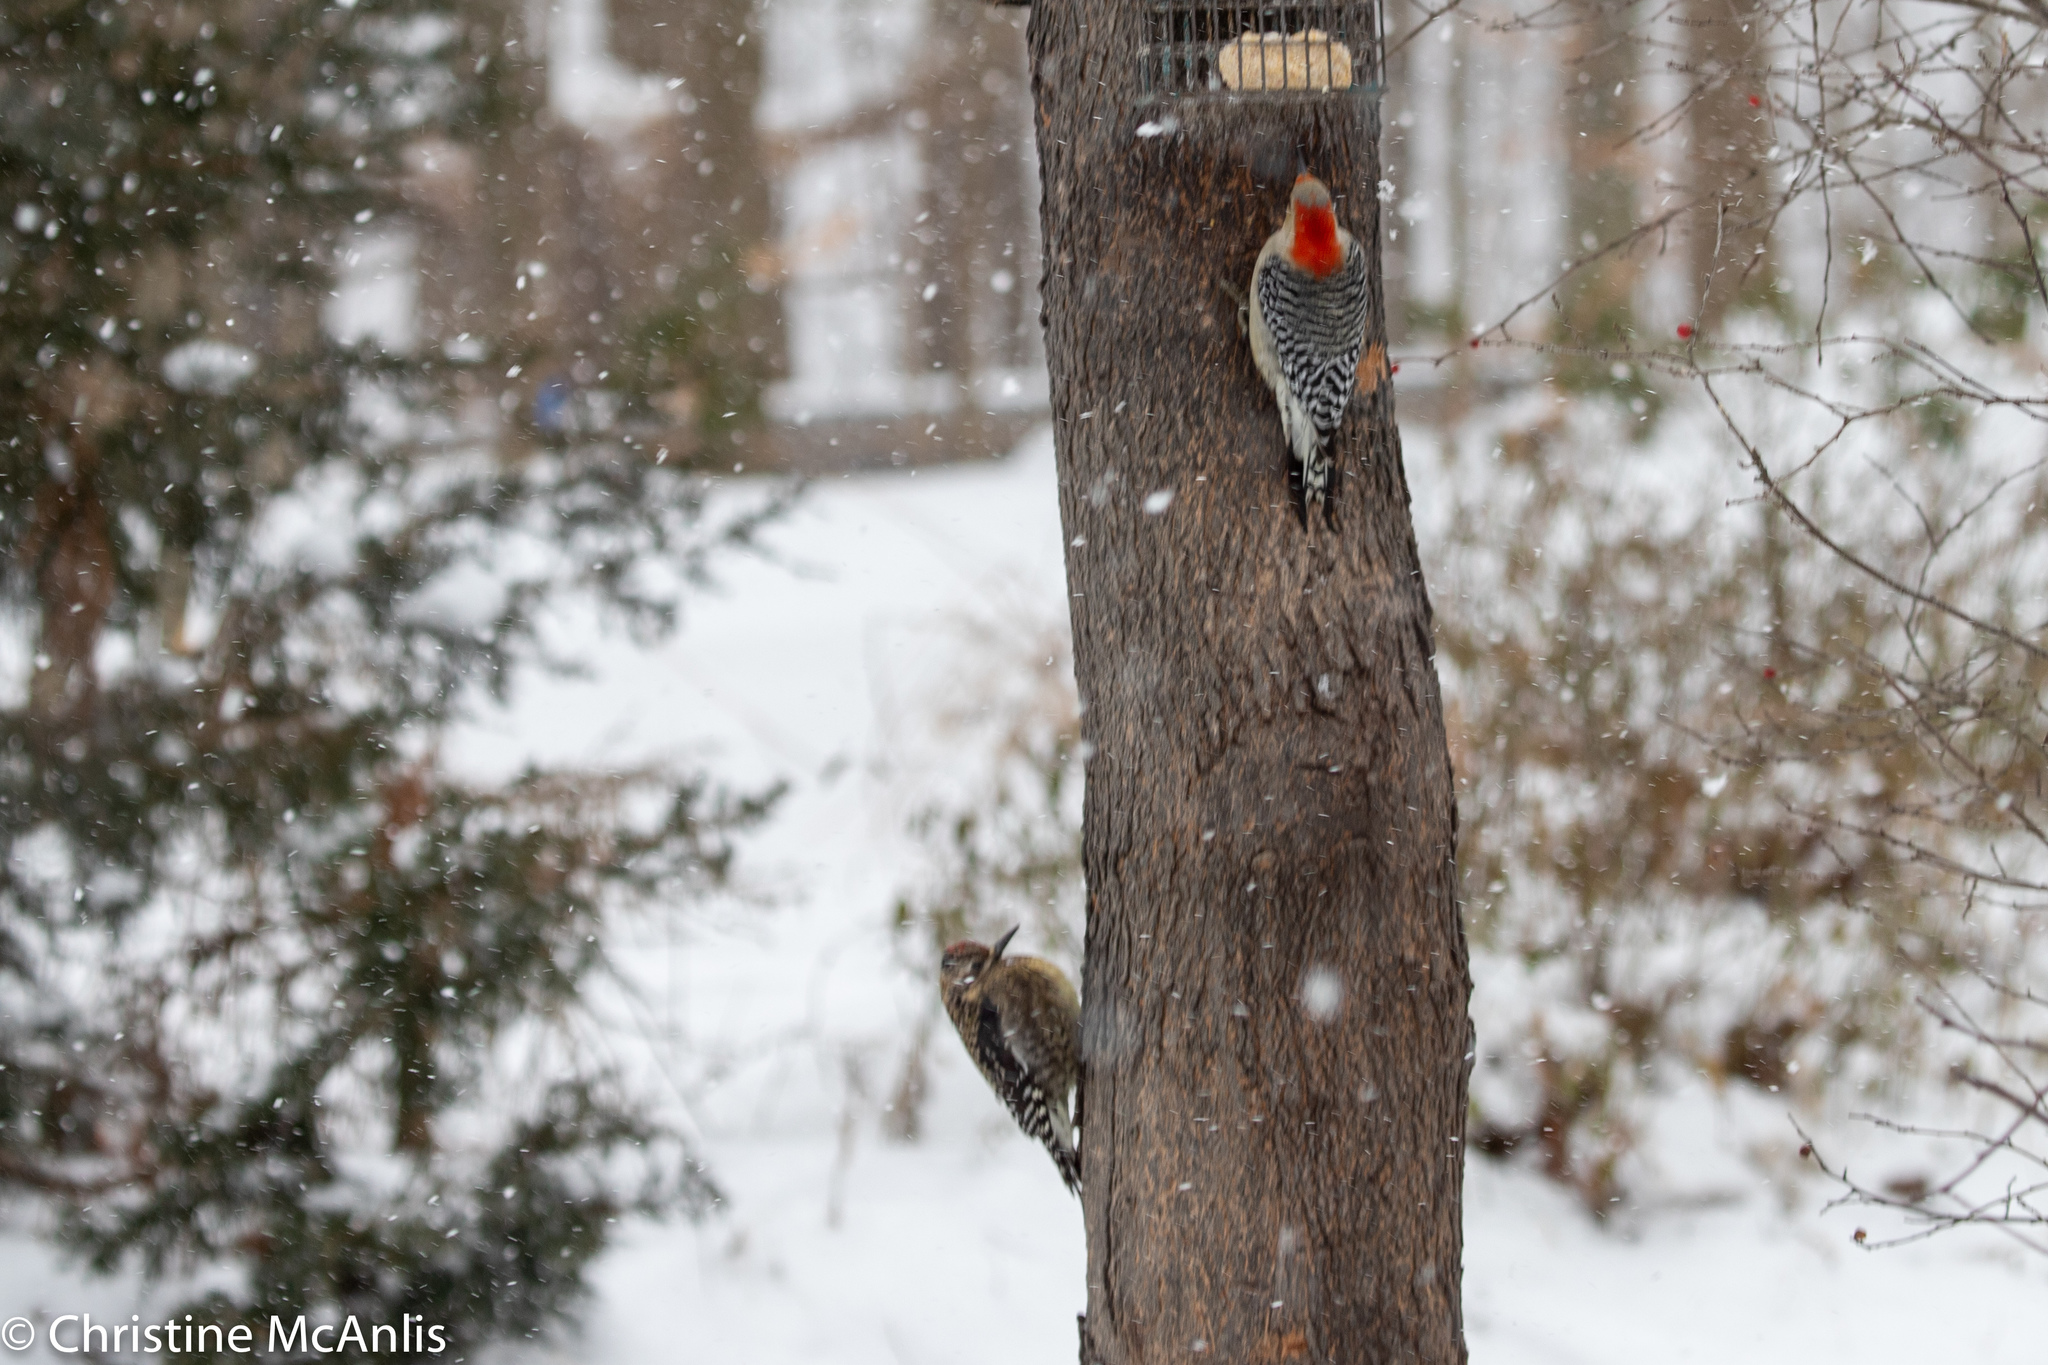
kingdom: Animalia
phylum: Chordata
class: Aves
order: Piciformes
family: Picidae
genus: Melanerpes
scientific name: Melanerpes carolinus
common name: Red-bellied woodpecker
